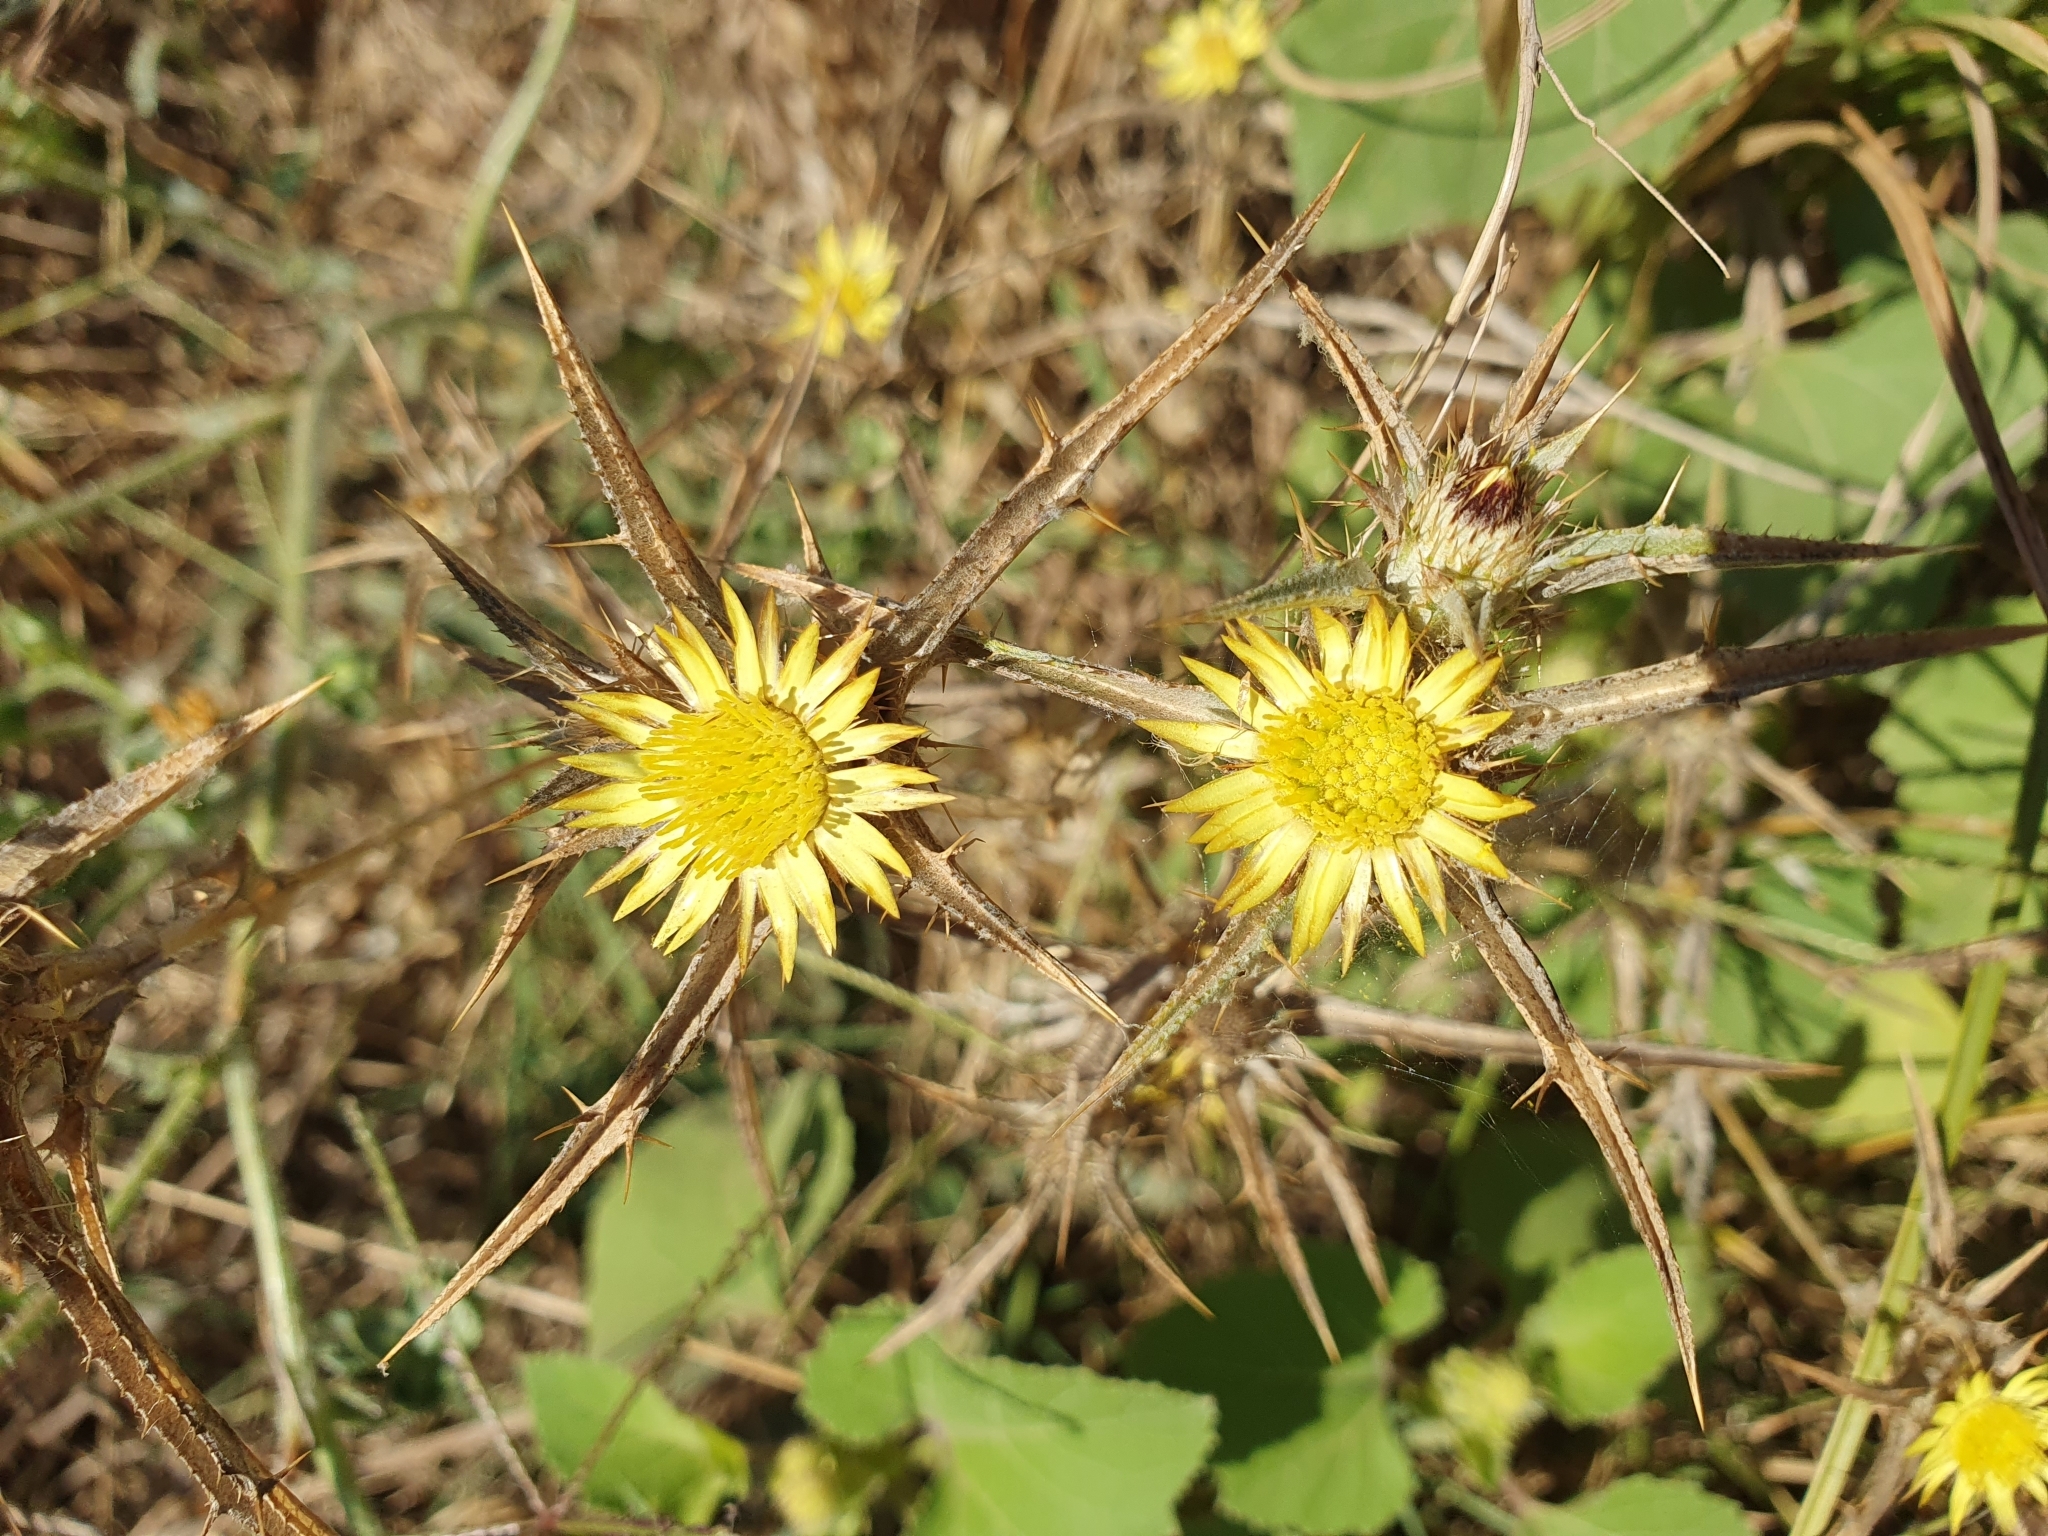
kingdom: Plantae
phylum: Tracheophyta
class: Magnoliopsida
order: Asterales
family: Asteraceae
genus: Carlina
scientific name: Carlina racemosa
